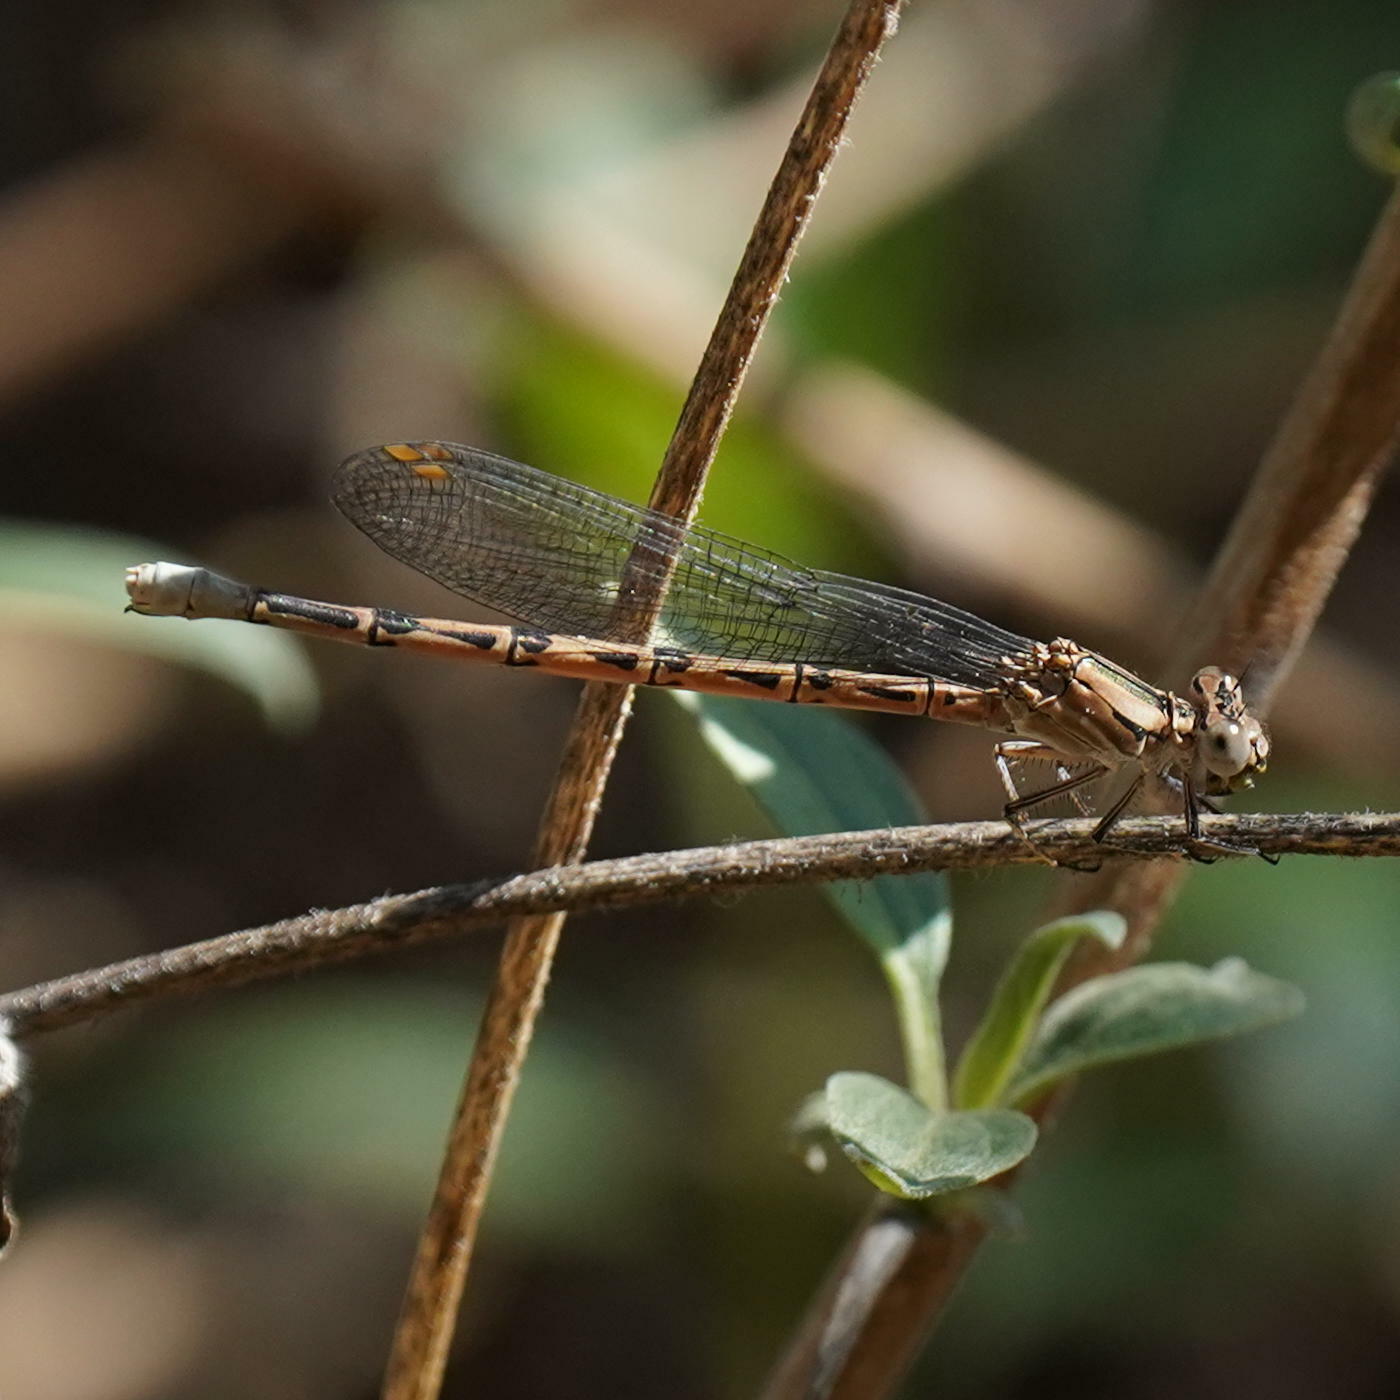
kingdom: Animalia
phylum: Arthropoda
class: Insecta
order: Odonata
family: Coenagrionidae
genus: Argia
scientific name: Argia vivida
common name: Vivid dancer
